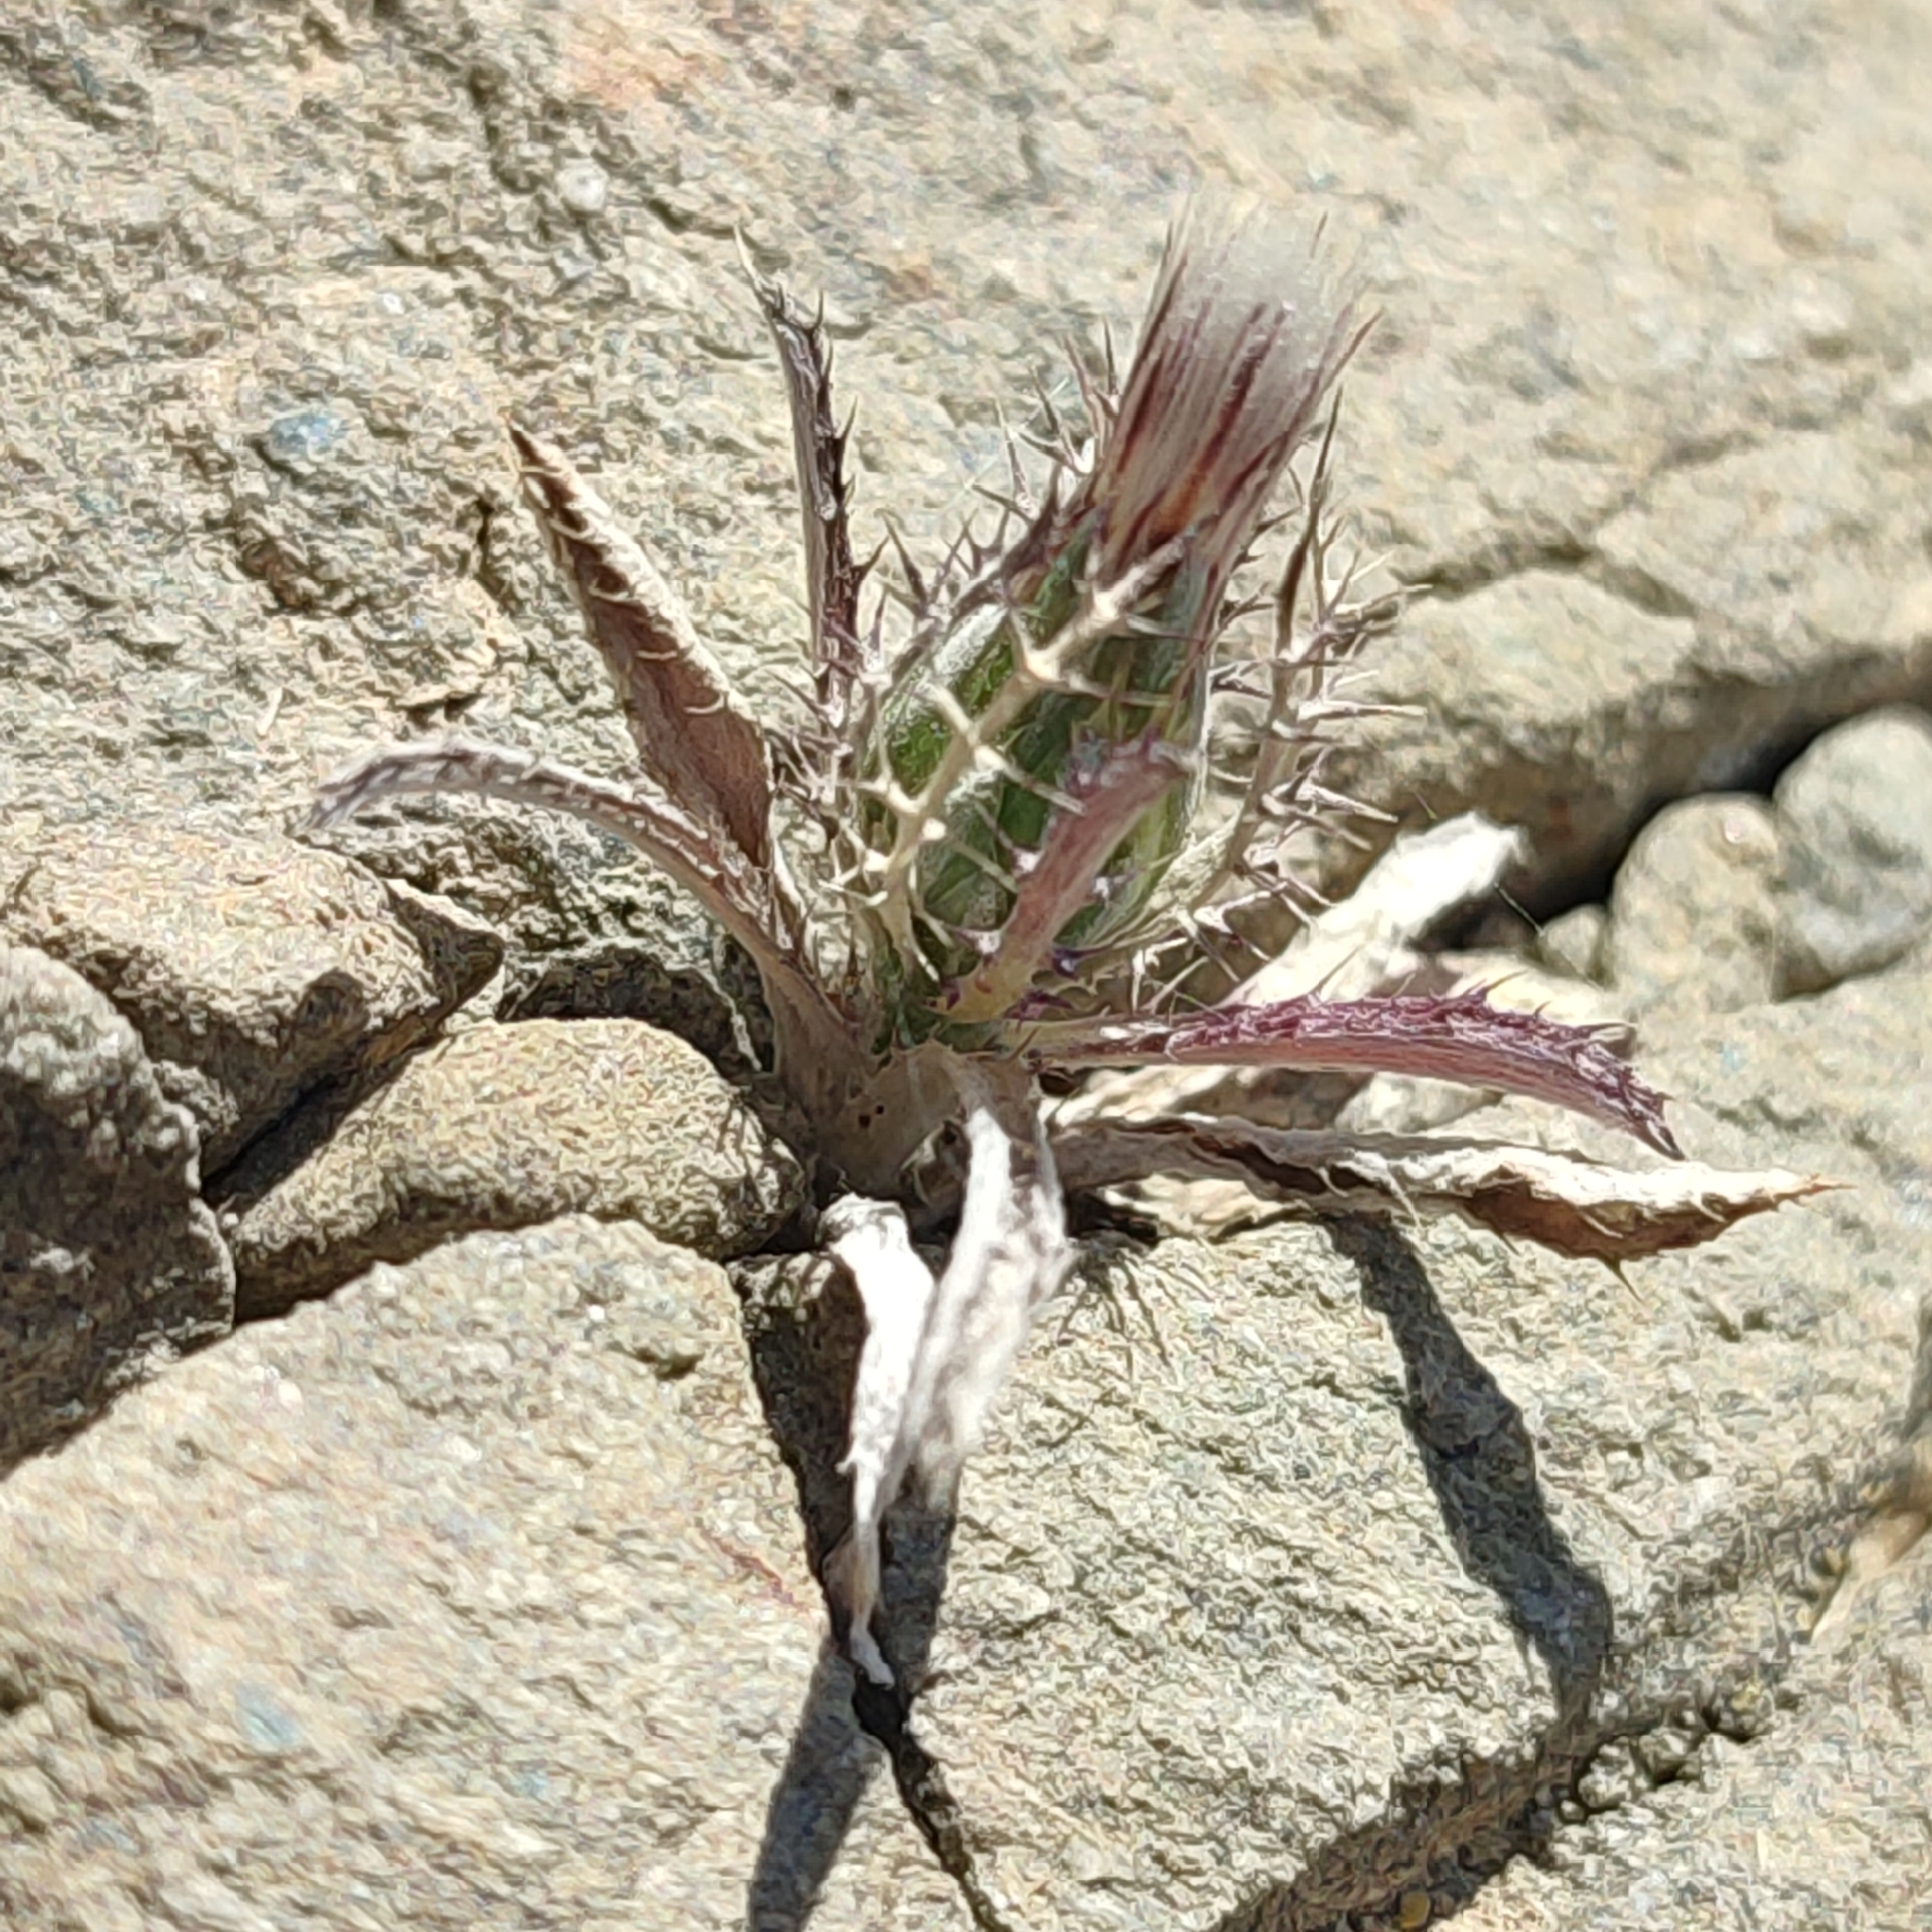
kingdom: Plantae
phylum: Tracheophyta
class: Magnoliopsida
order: Asterales
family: Asteraceae
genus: Atractylis
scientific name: Atractylis cancellata
